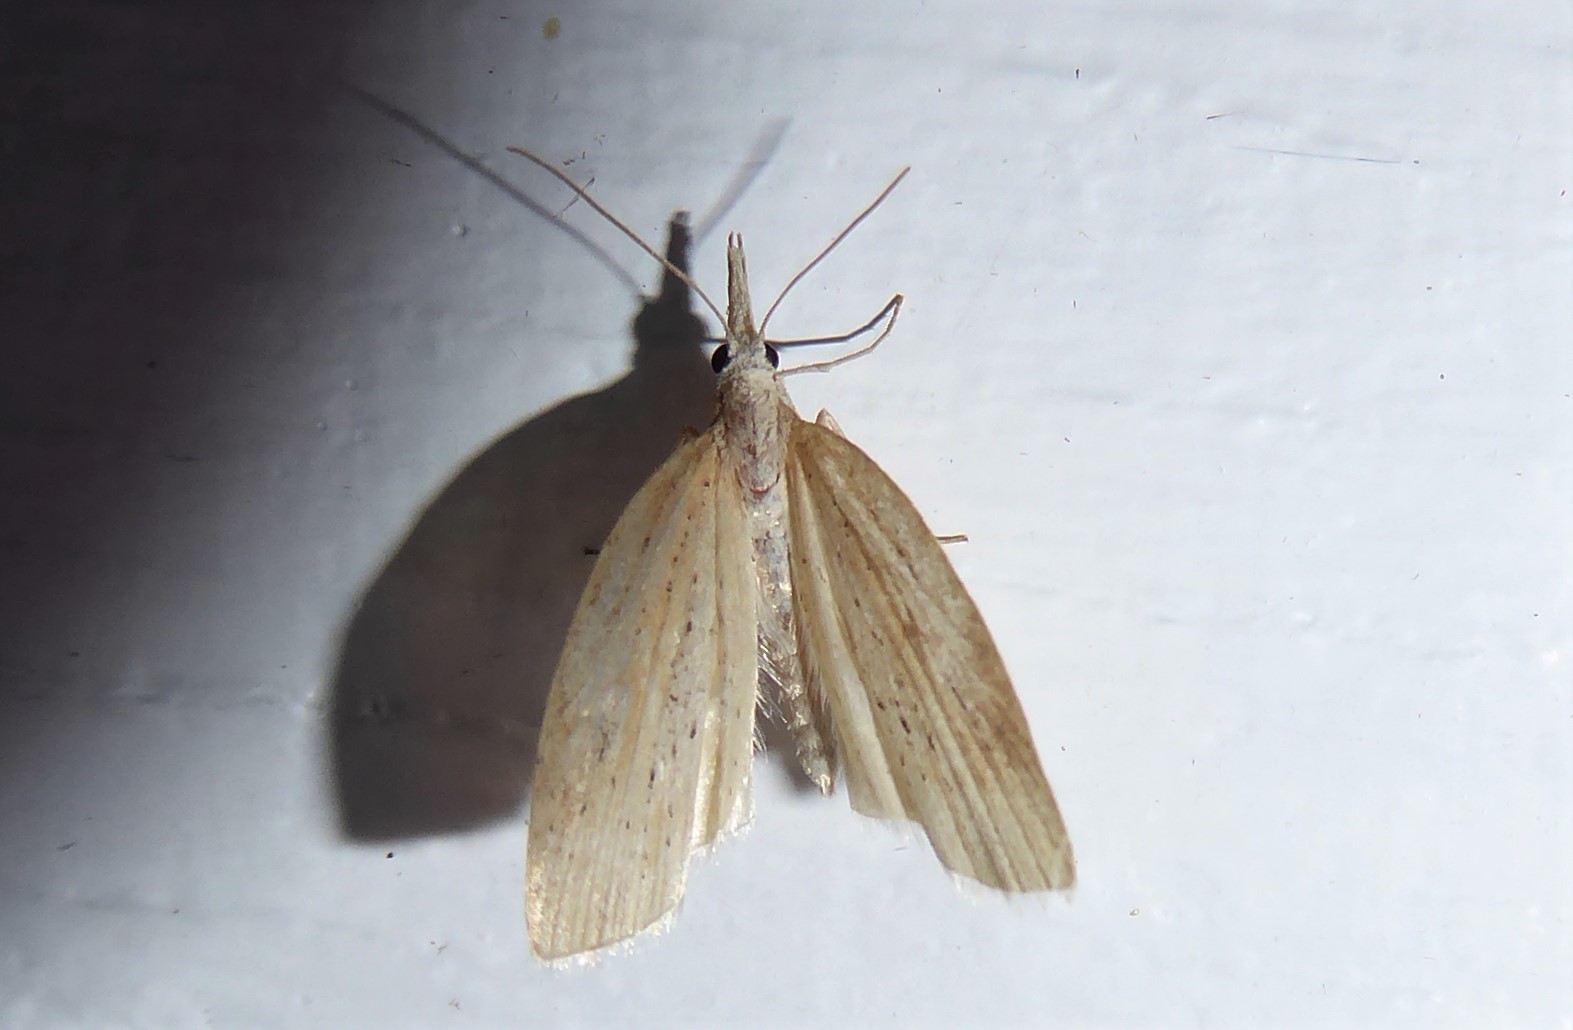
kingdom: Animalia
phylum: Arthropoda
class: Insecta
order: Lepidoptera
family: Geometridae
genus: Microdes
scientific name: Microdes epicryptis
